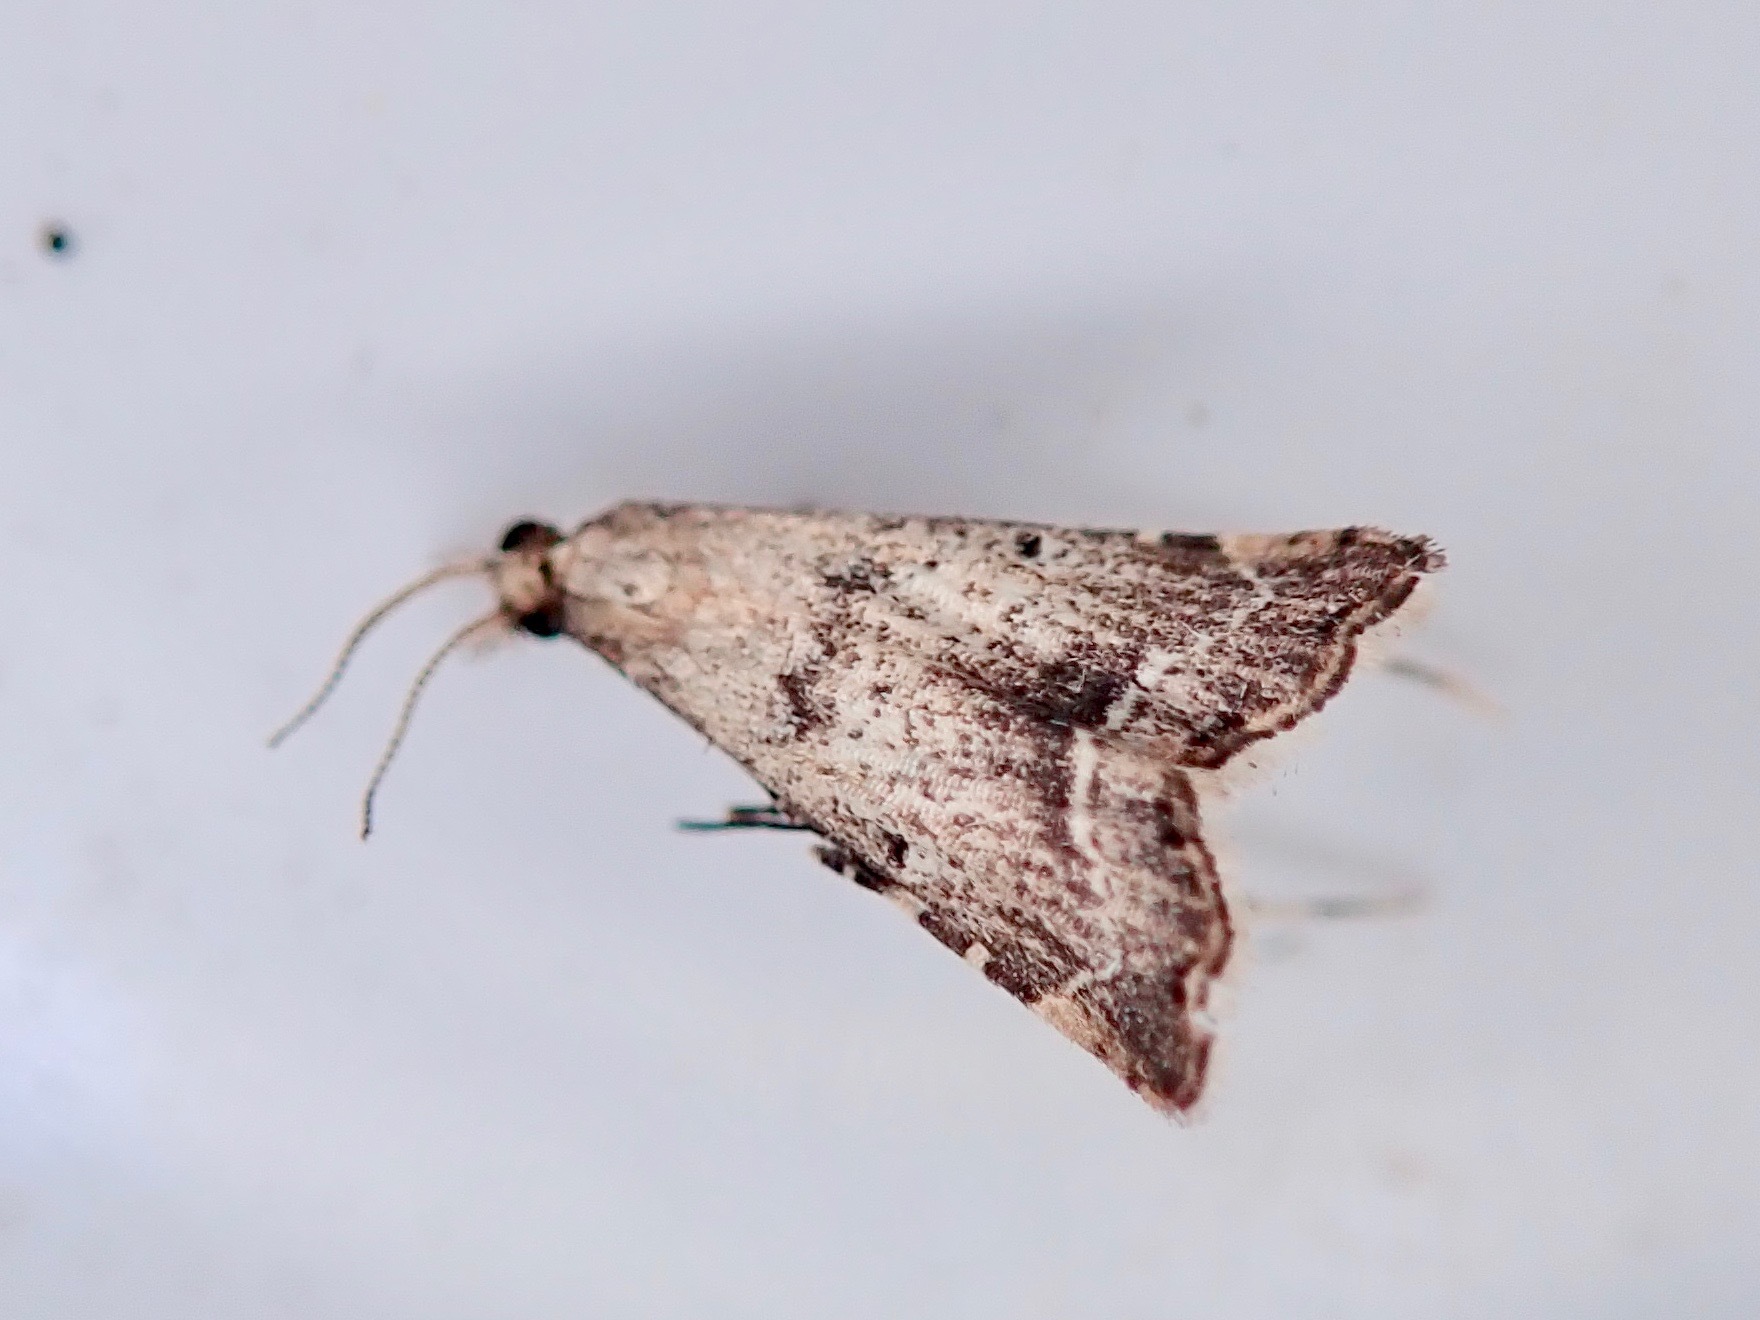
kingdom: Animalia
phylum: Arthropoda
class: Insecta
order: Lepidoptera
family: Crambidae
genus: Diplopseustis
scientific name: Diplopseustis perieresalis
